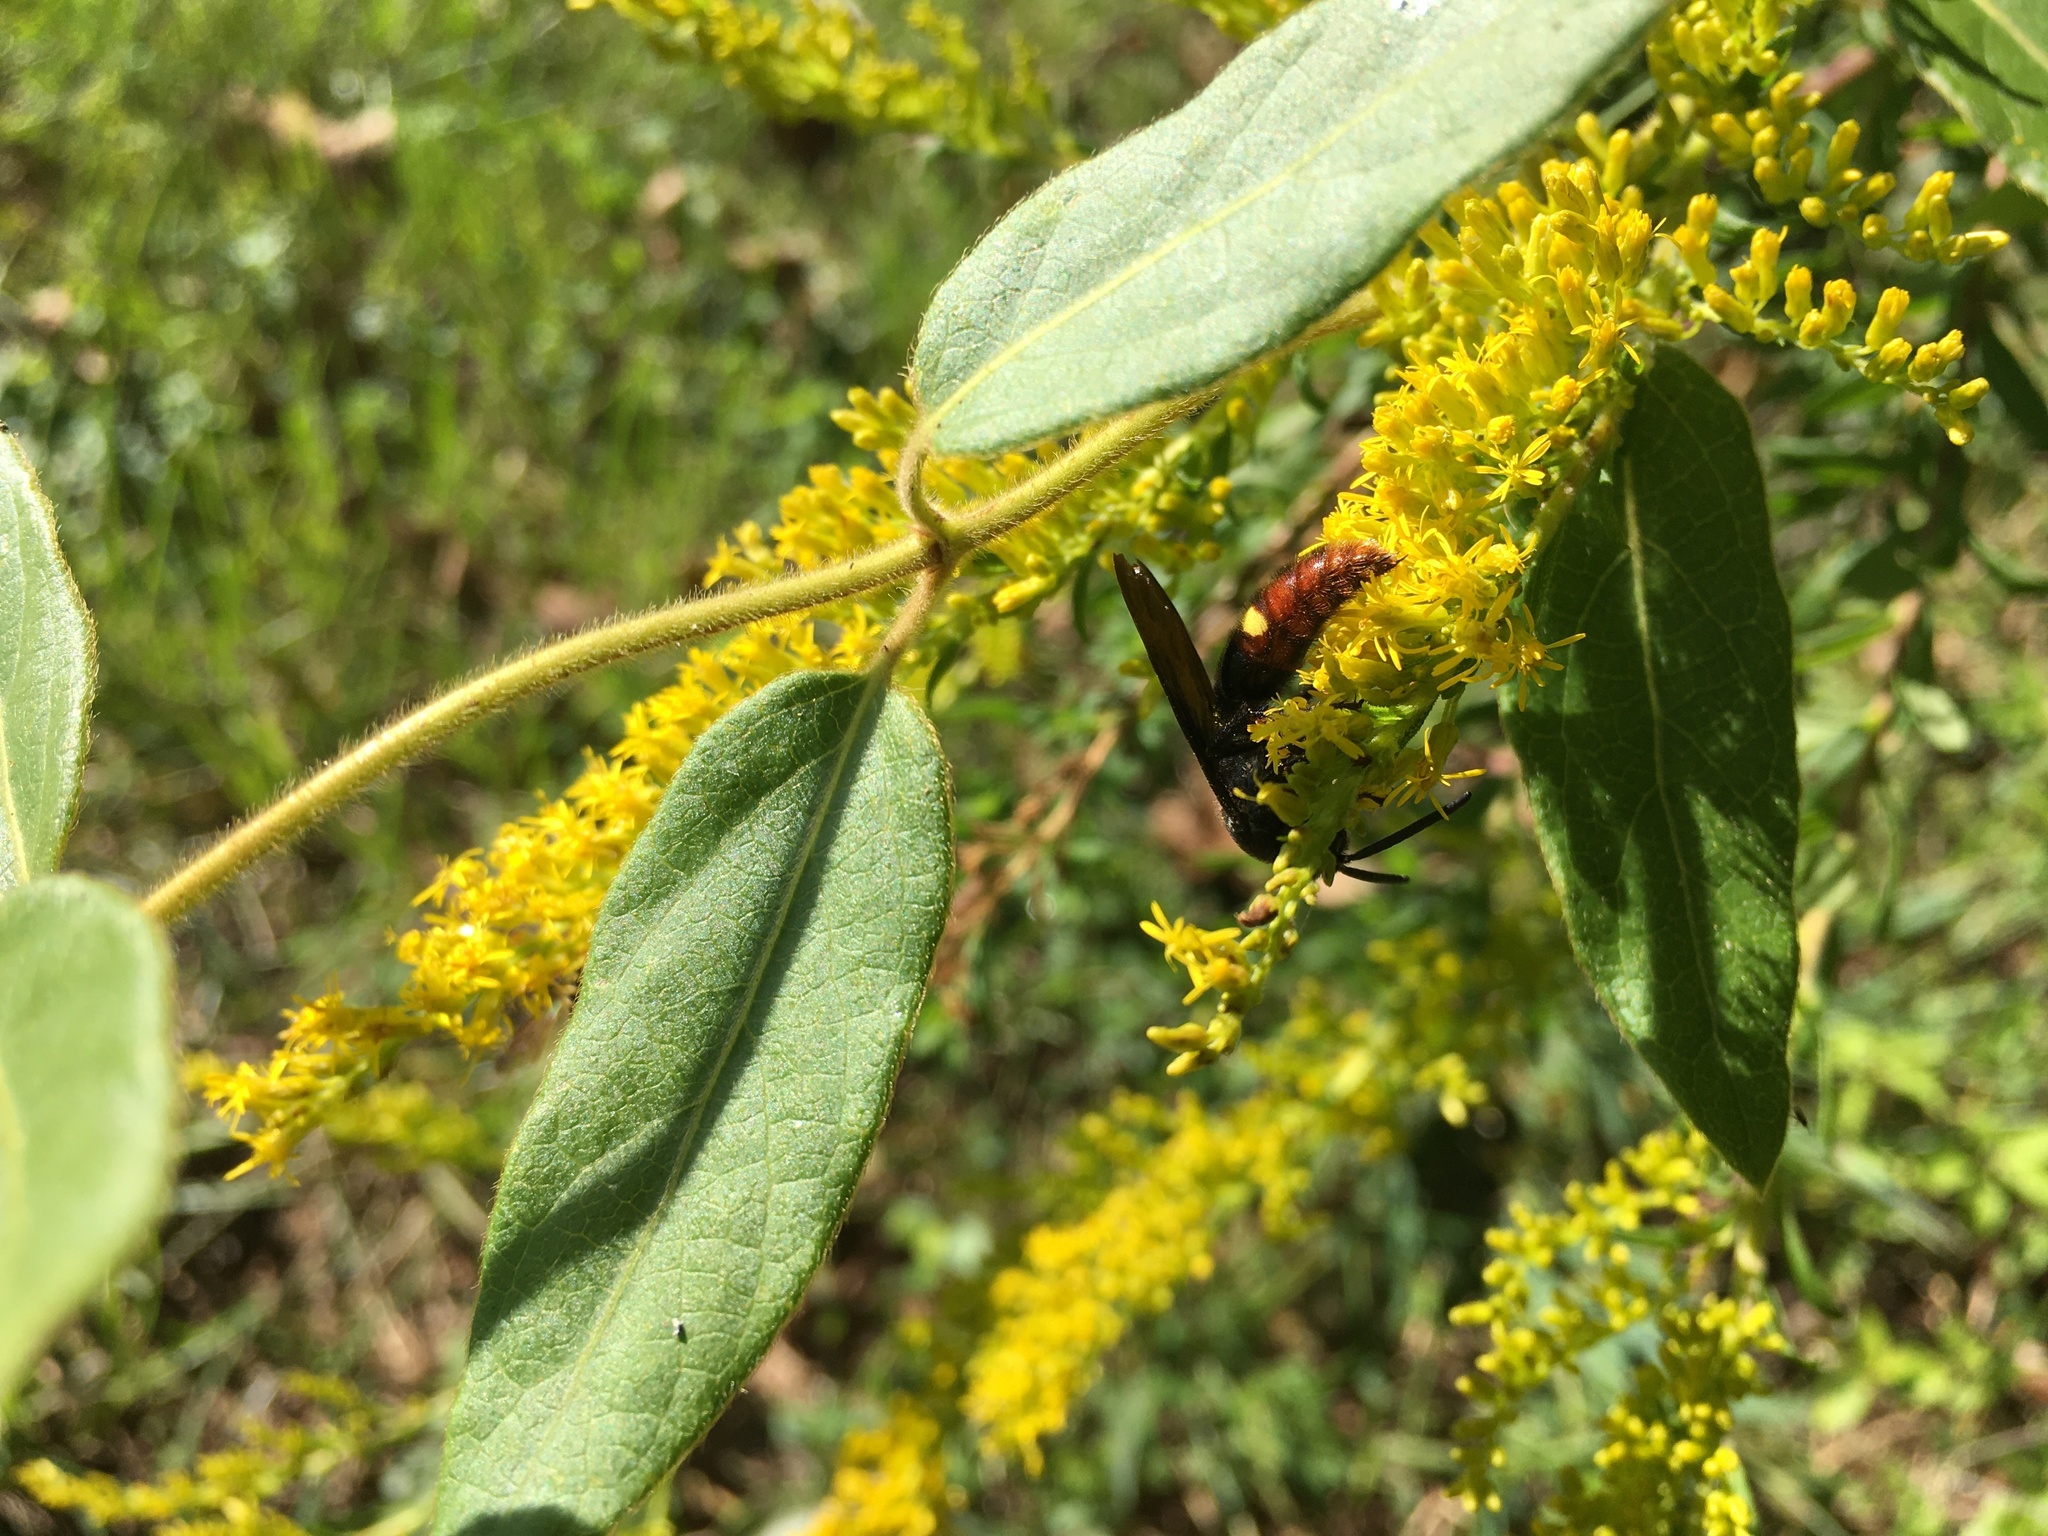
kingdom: Animalia
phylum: Arthropoda
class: Insecta
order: Hymenoptera
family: Scoliidae
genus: Scolia
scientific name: Scolia dubia
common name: Blue-winged scoliid wasp
